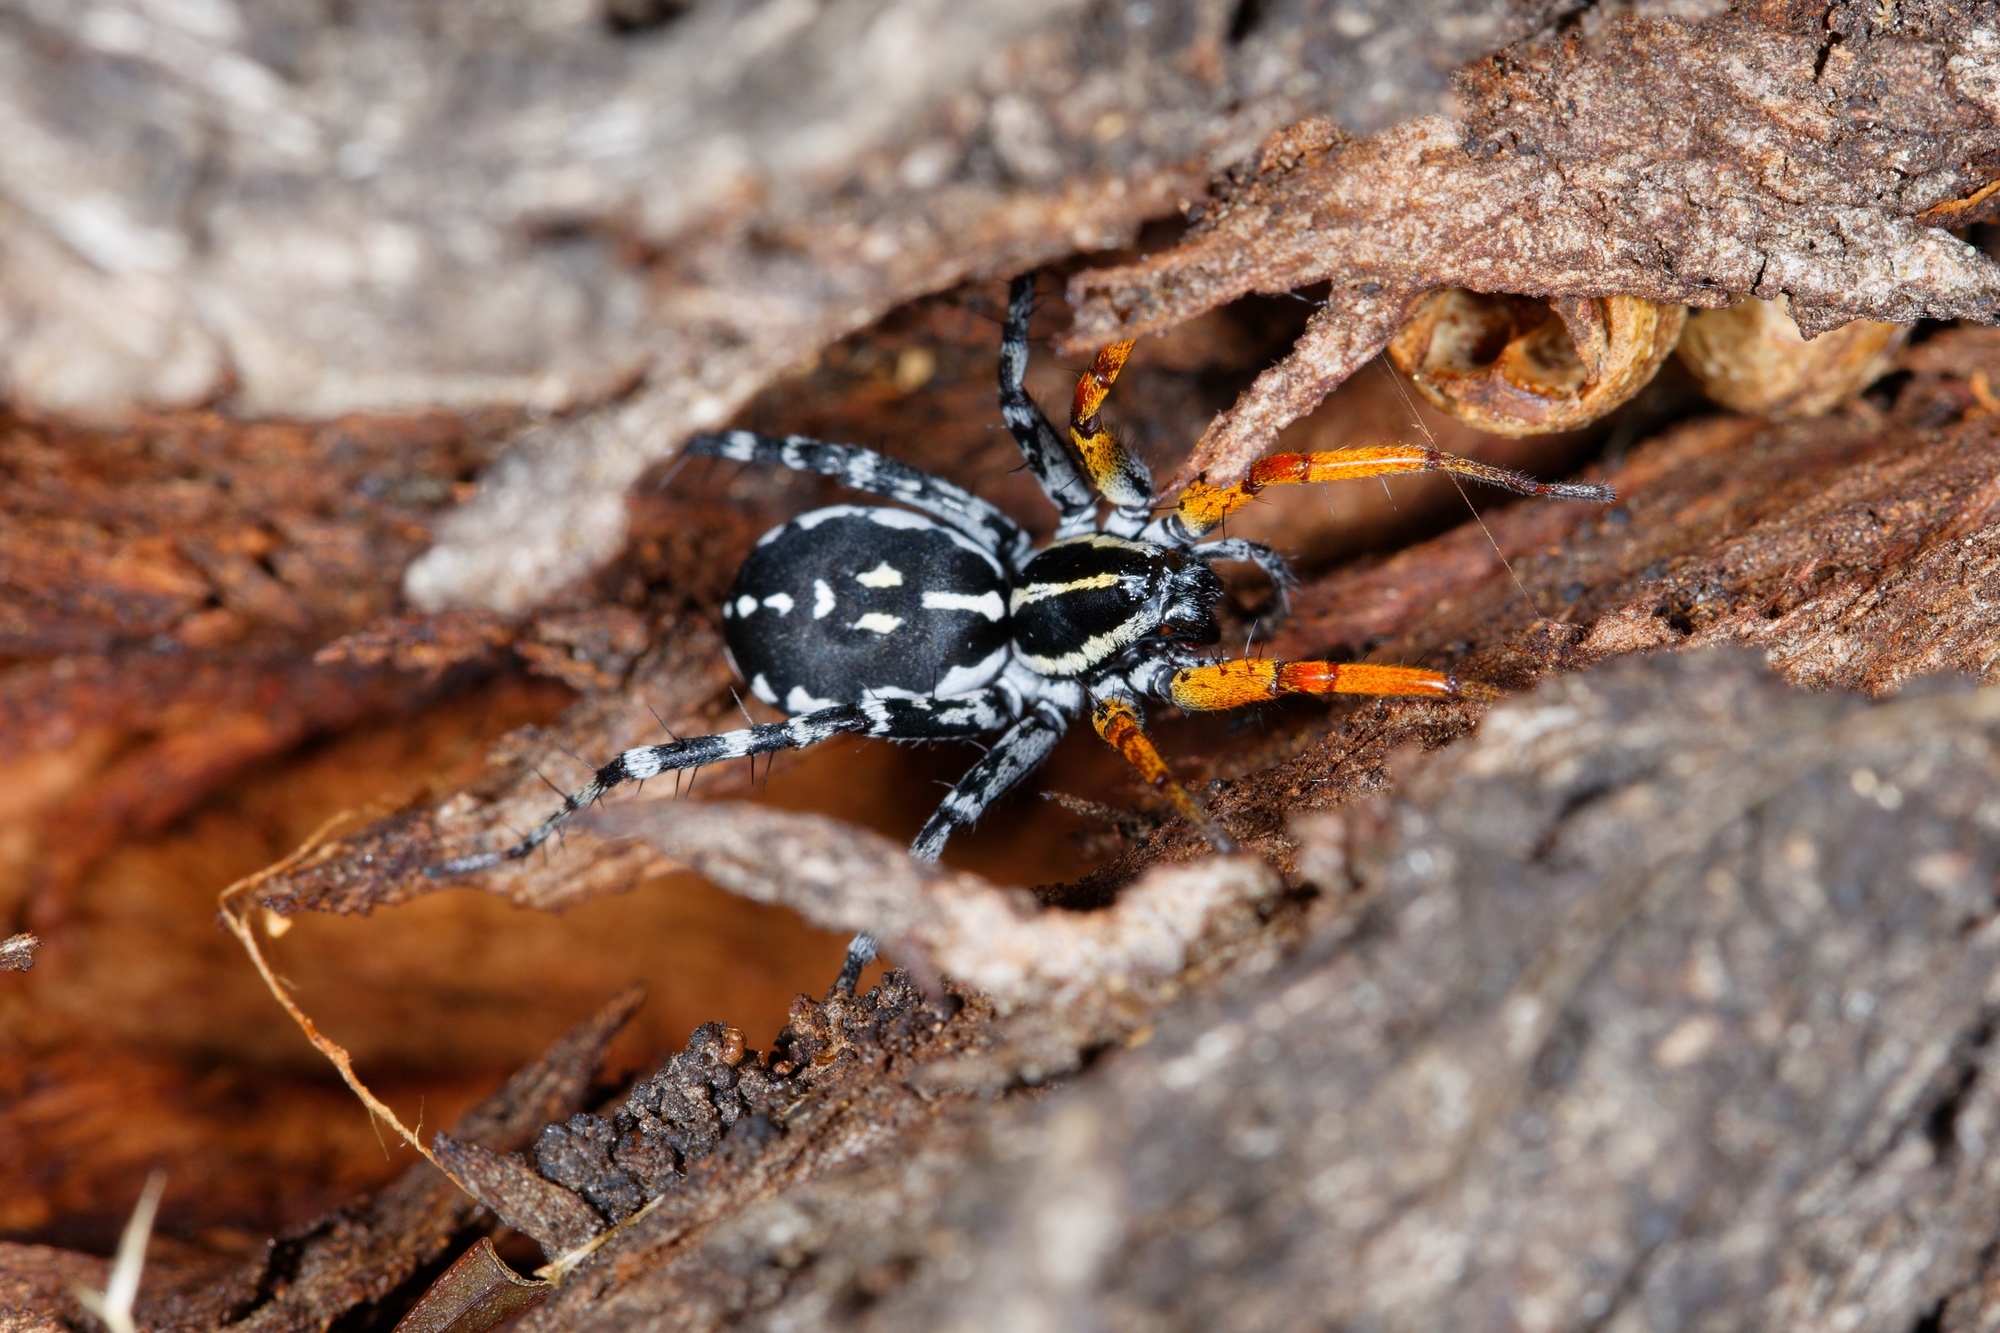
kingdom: Animalia
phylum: Arthropoda
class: Arachnida
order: Araneae
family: Corinnidae
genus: Nyssus
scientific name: Nyssus coloripes
